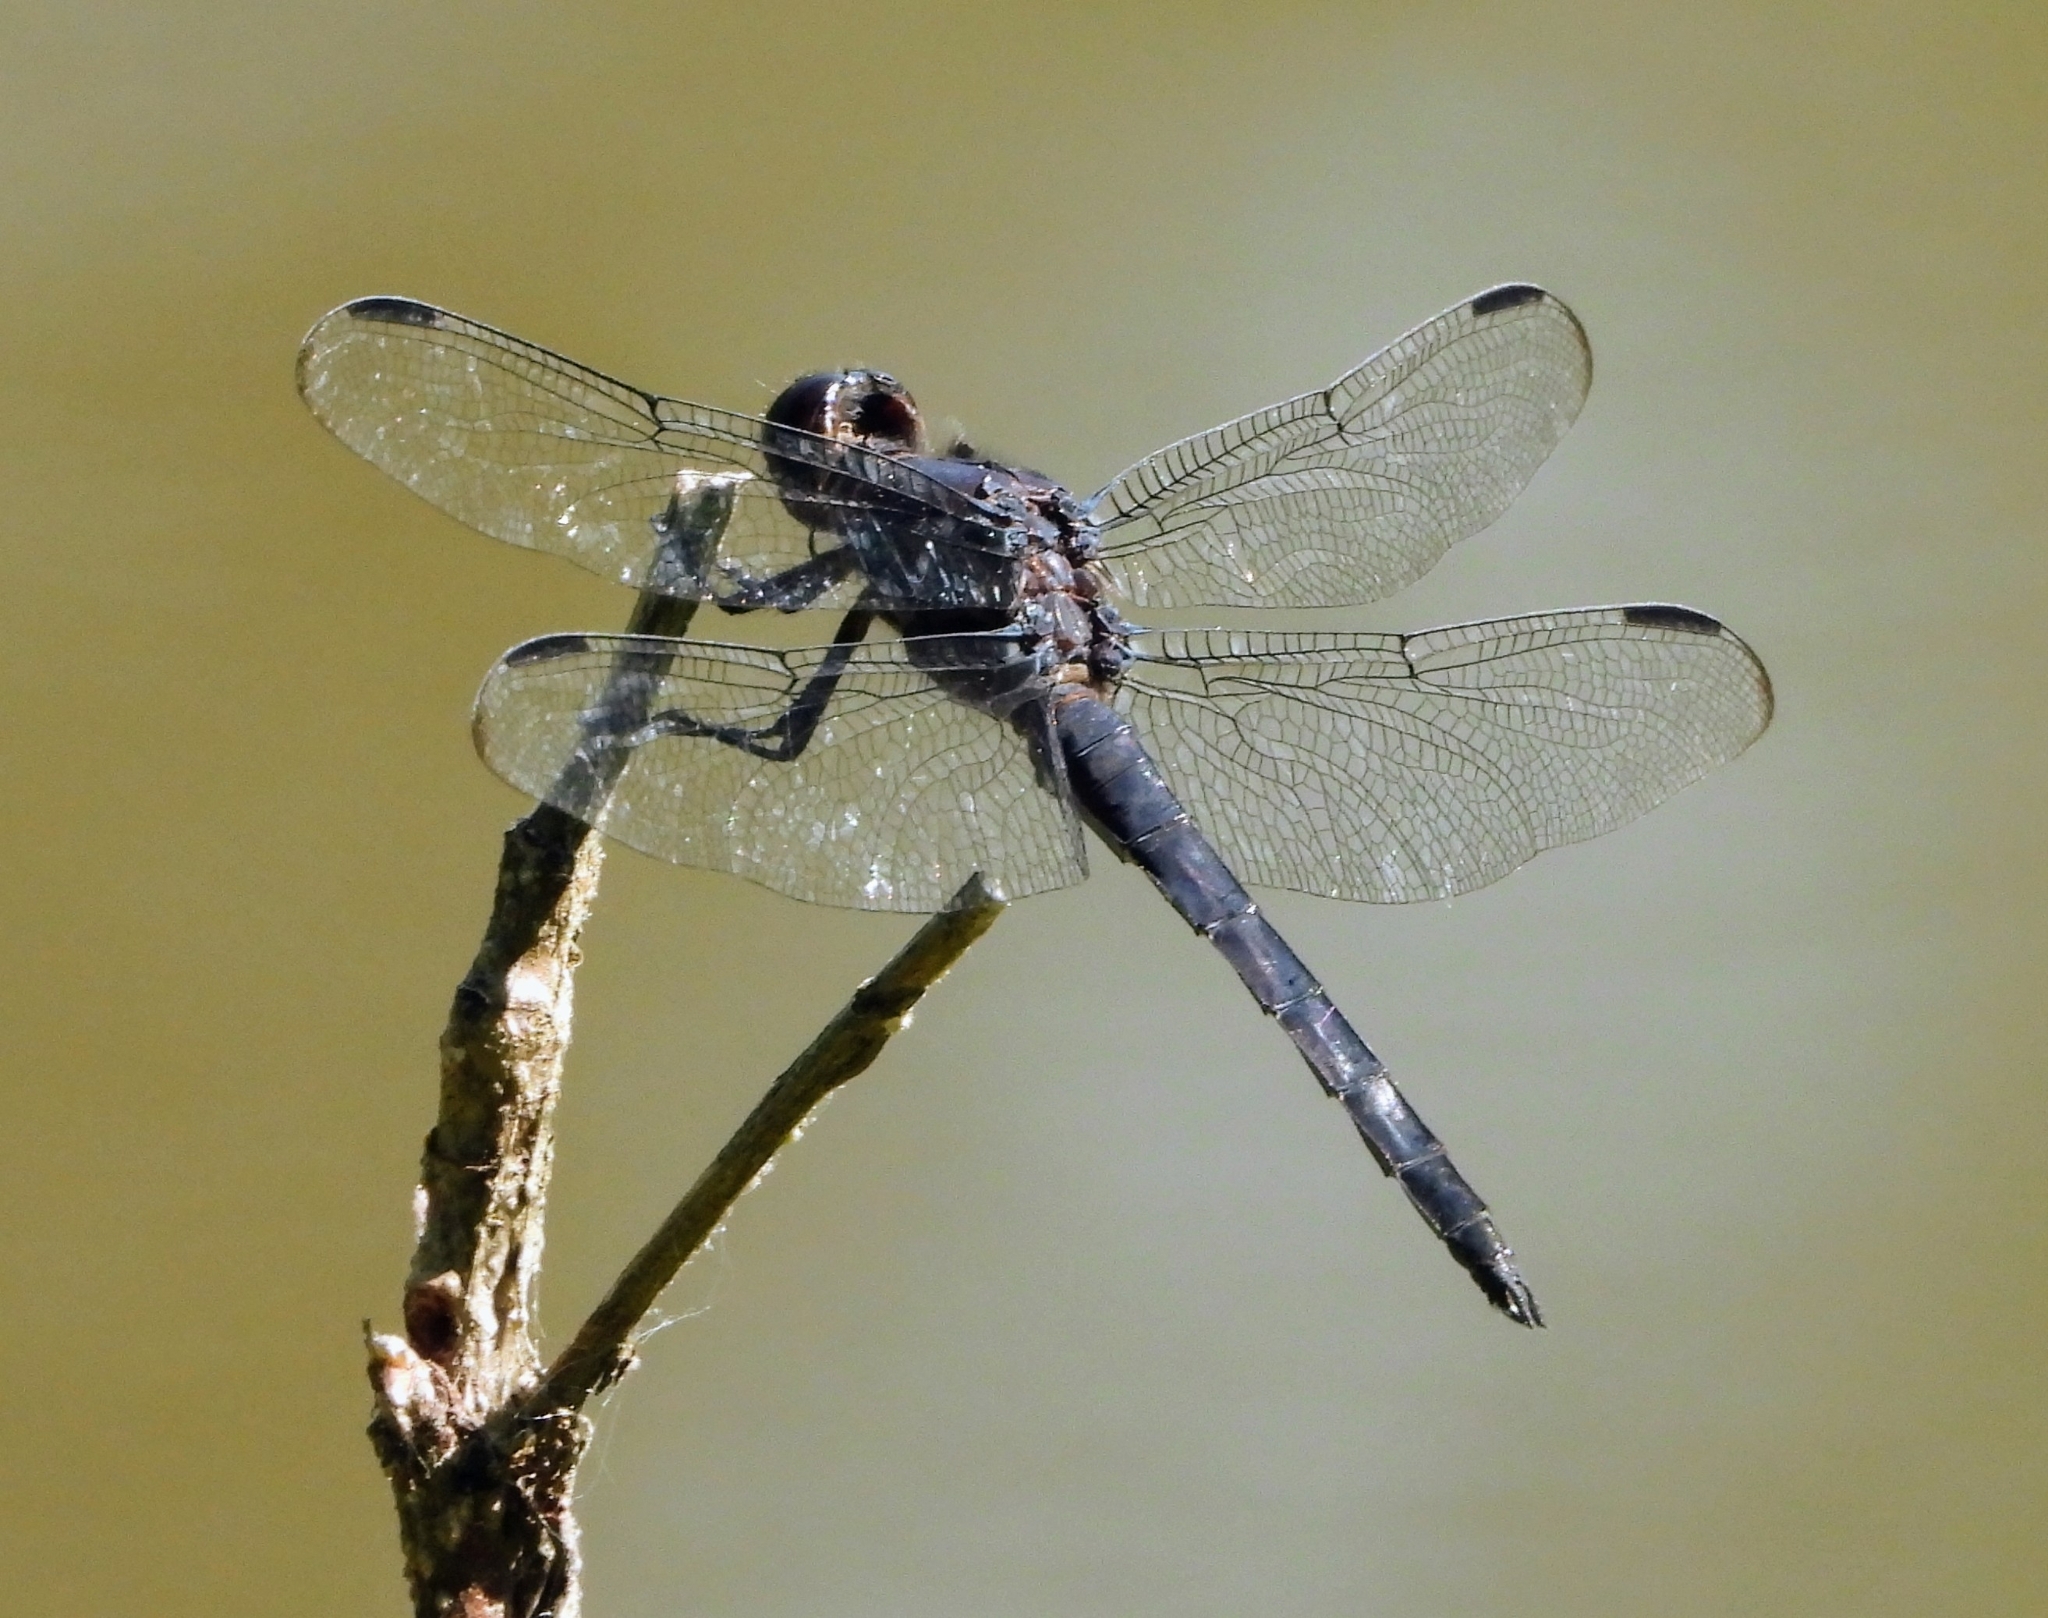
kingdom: Animalia
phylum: Arthropoda
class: Insecta
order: Odonata
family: Libellulidae
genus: Libellula
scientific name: Libellula incesta
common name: Slaty skimmer
